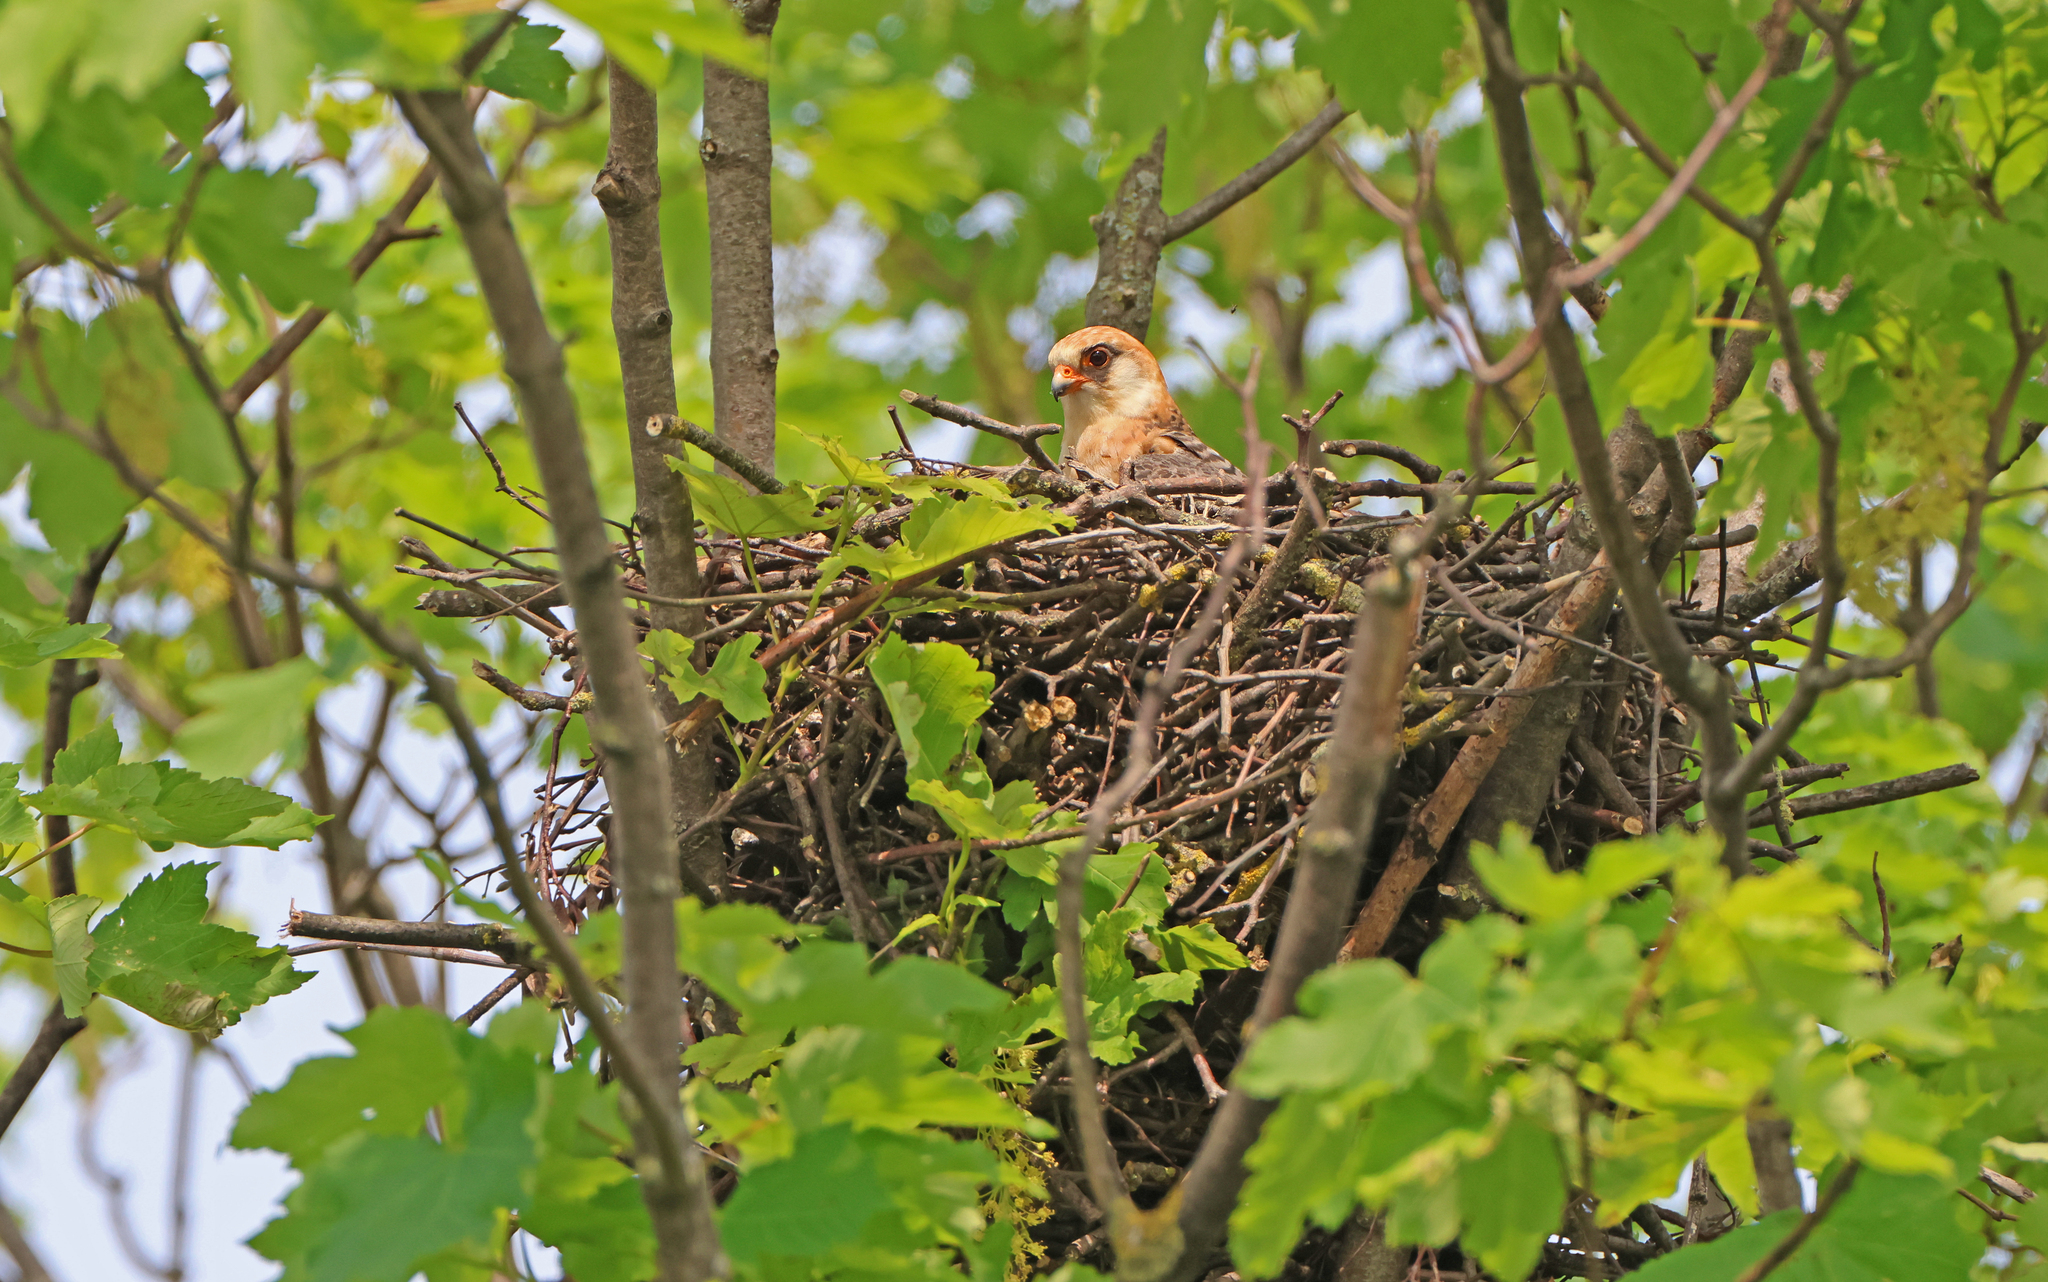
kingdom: Animalia
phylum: Chordata
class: Aves
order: Falconiformes
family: Falconidae
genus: Falco
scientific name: Falco vespertinus
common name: Red-footed falcon
